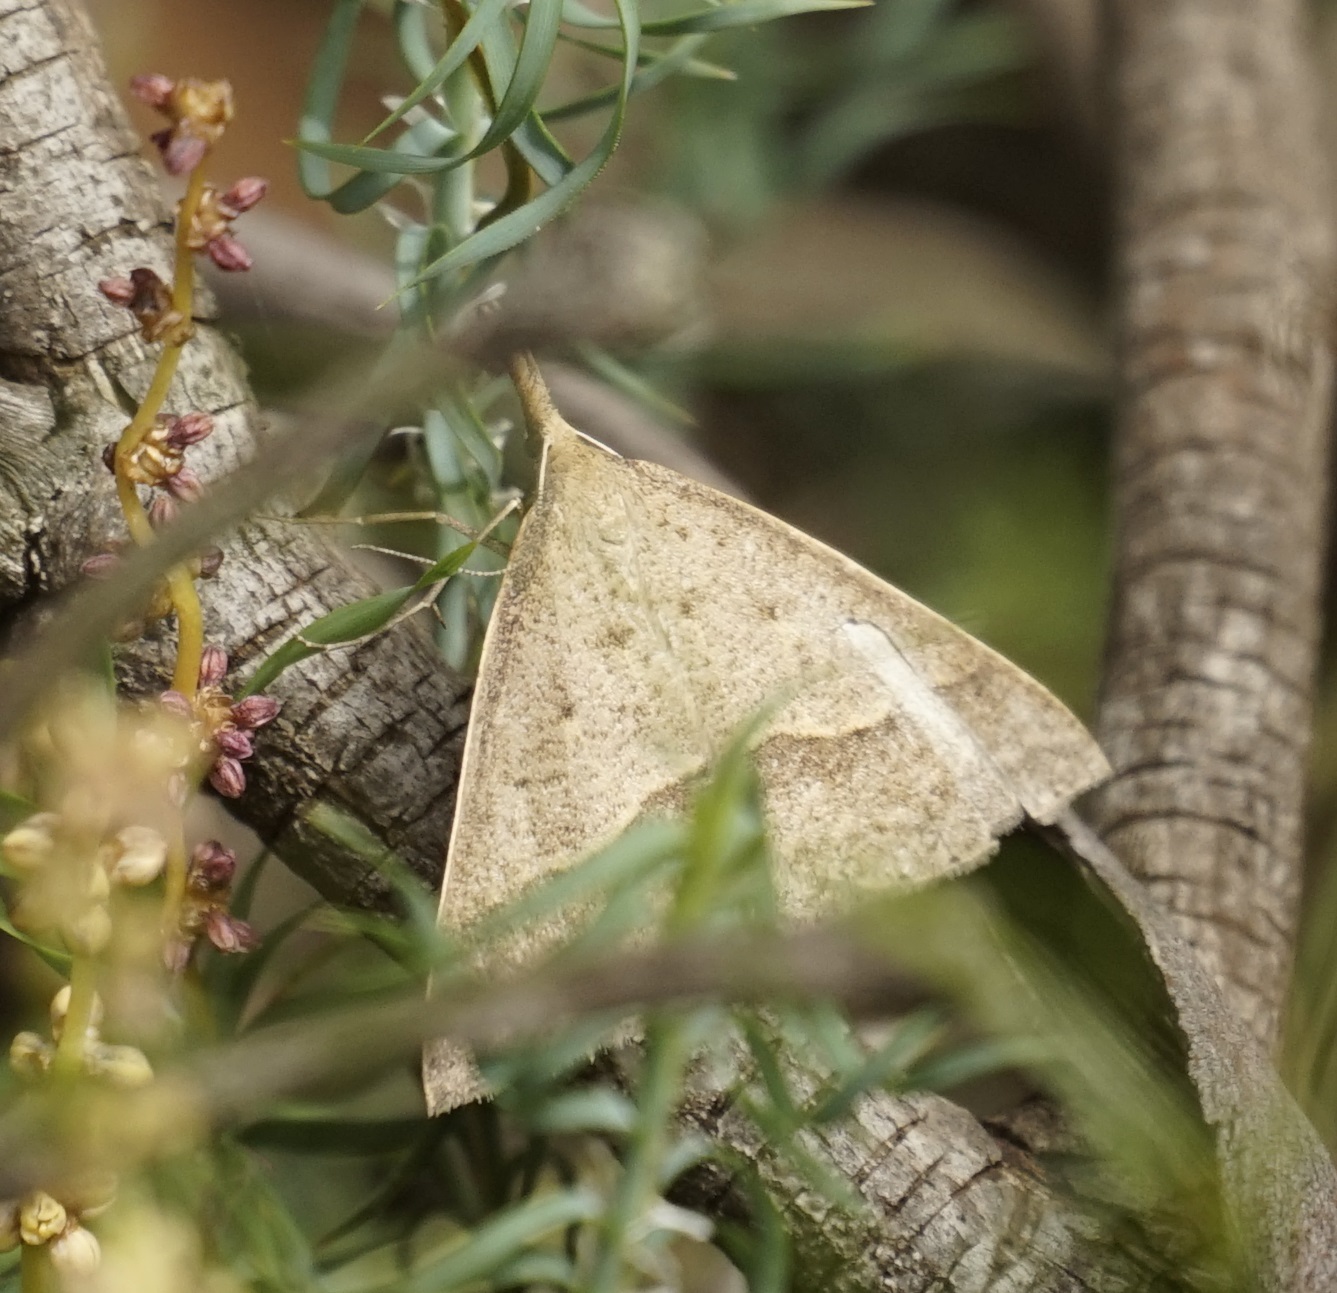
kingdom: Animalia
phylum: Arthropoda
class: Insecta
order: Lepidoptera
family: Geometridae
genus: Epidesmia
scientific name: Epidesmia tryxaria
